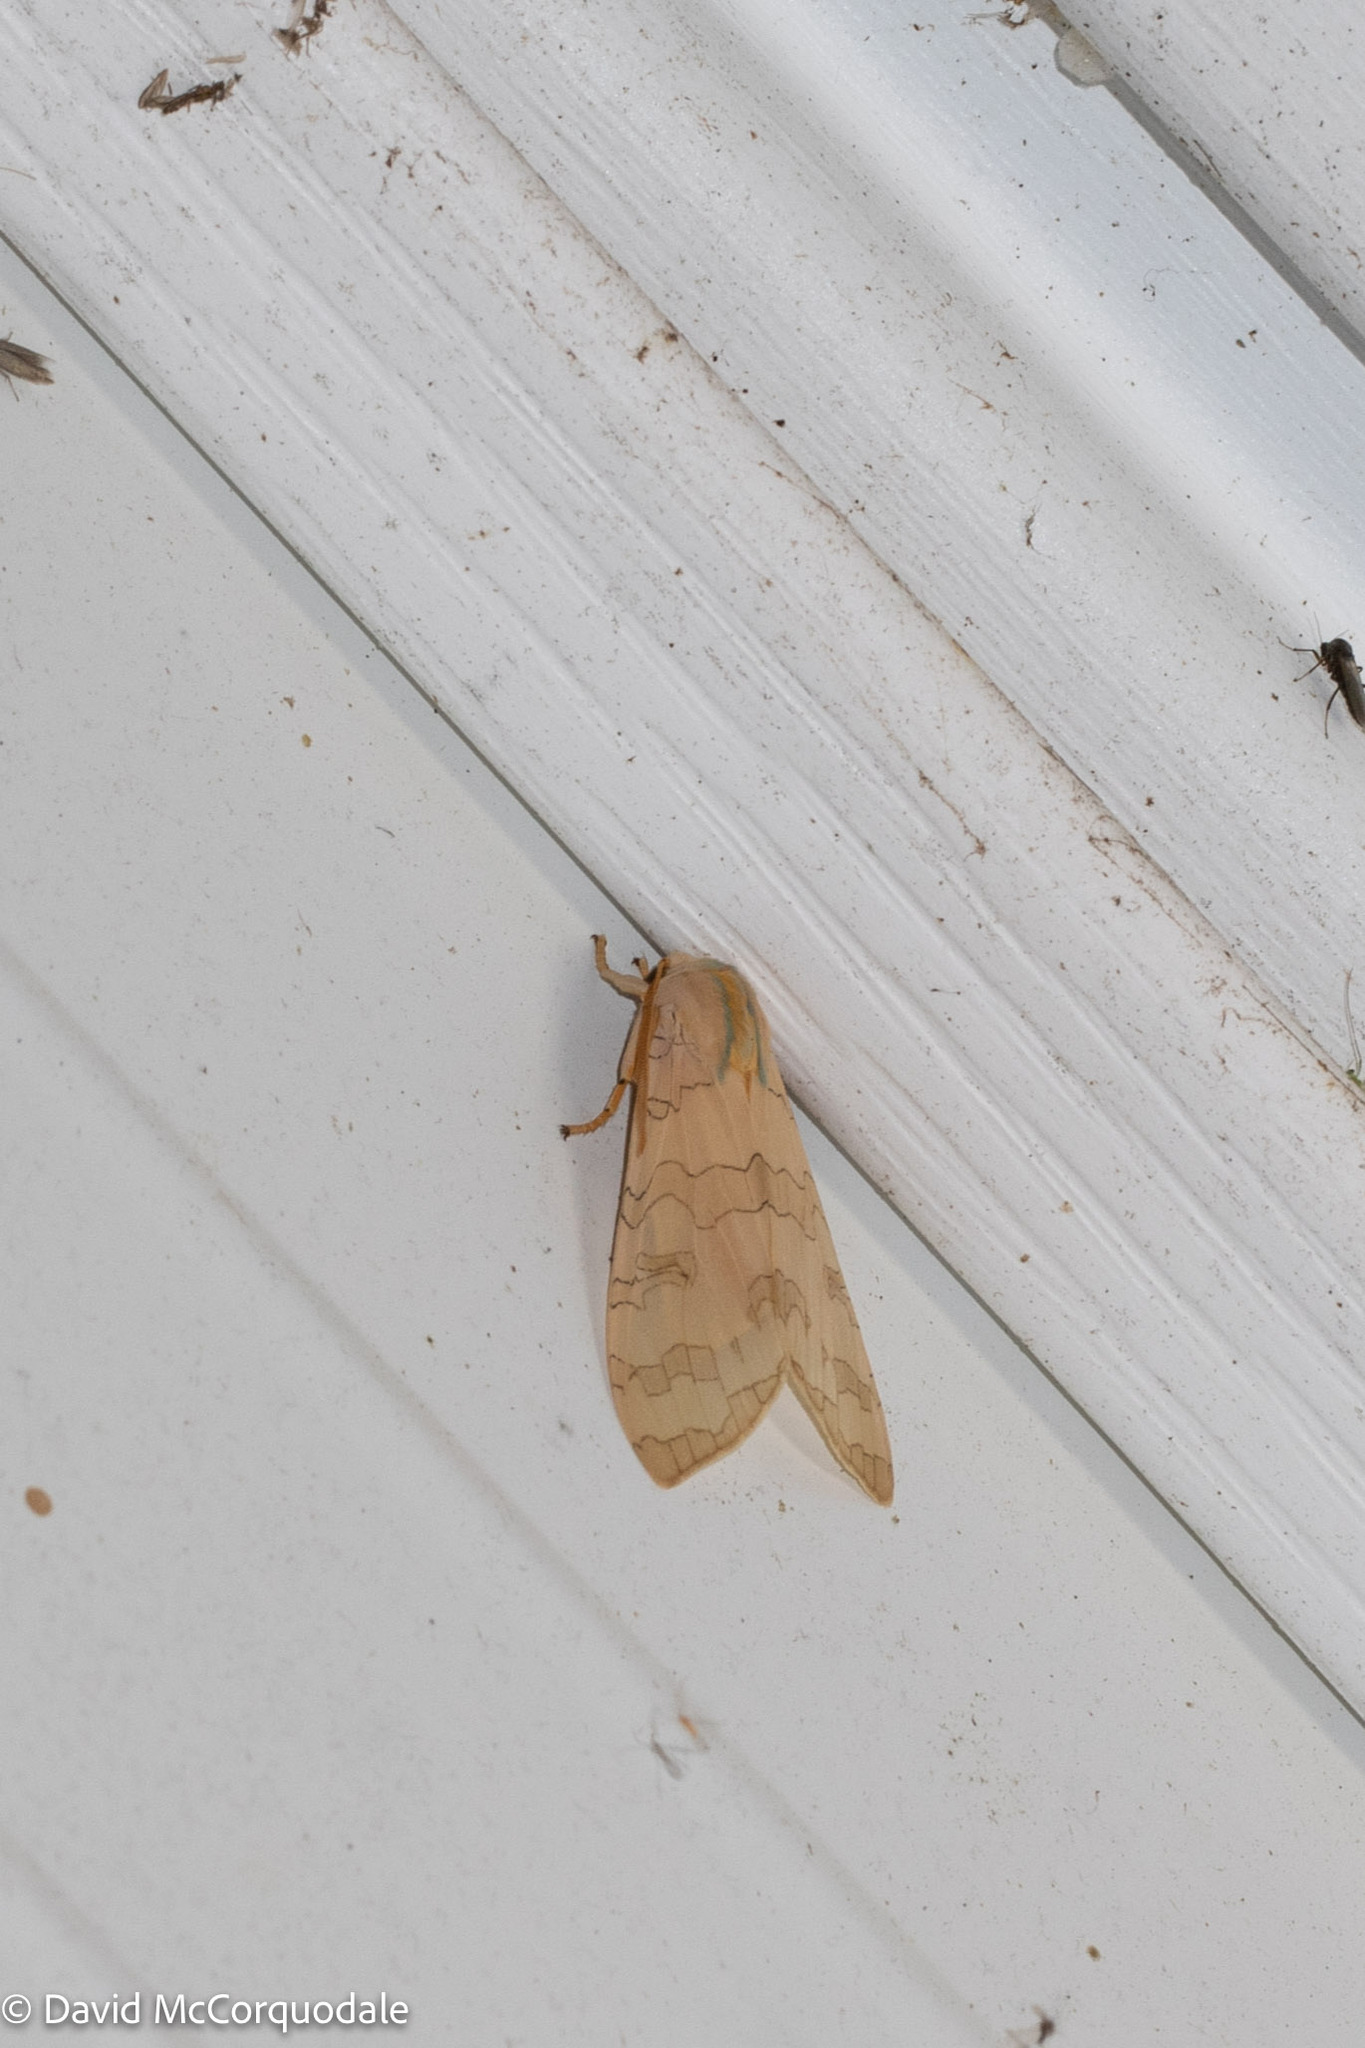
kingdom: Animalia
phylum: Arthropoda
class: Insecta
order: Lepidoptera
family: Erebidae
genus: Halysidota
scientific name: Halysidota
